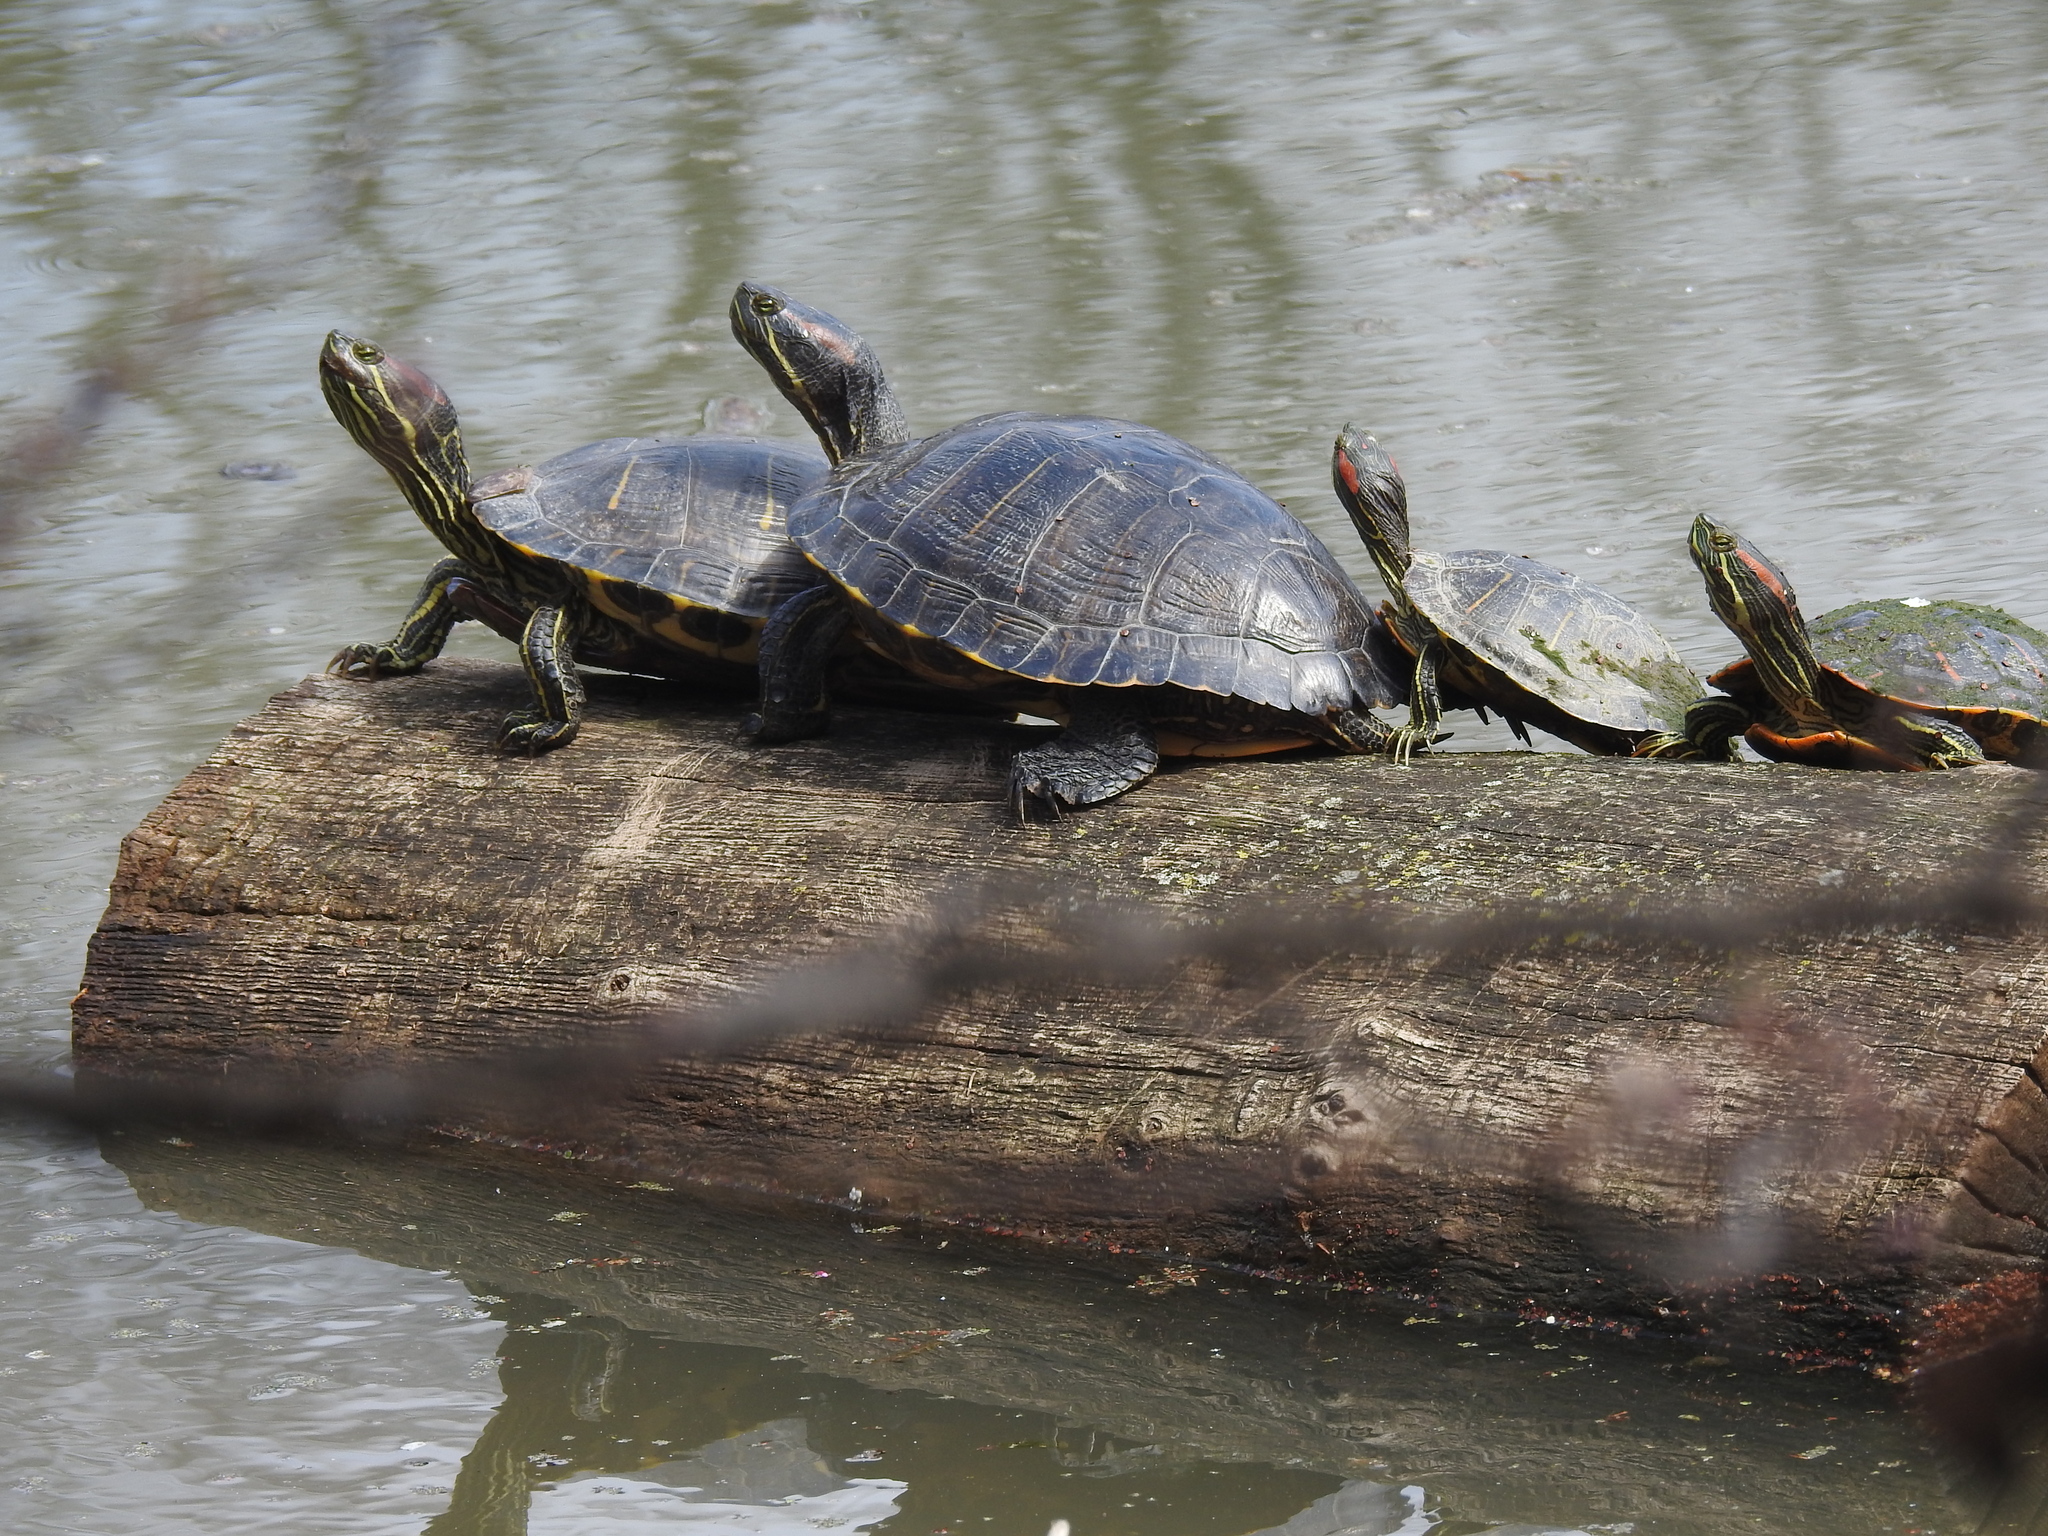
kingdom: Animalia
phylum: Chordata
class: Testudines
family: Emydidae
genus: Trachemys
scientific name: Trachemys scripta
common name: Slider
